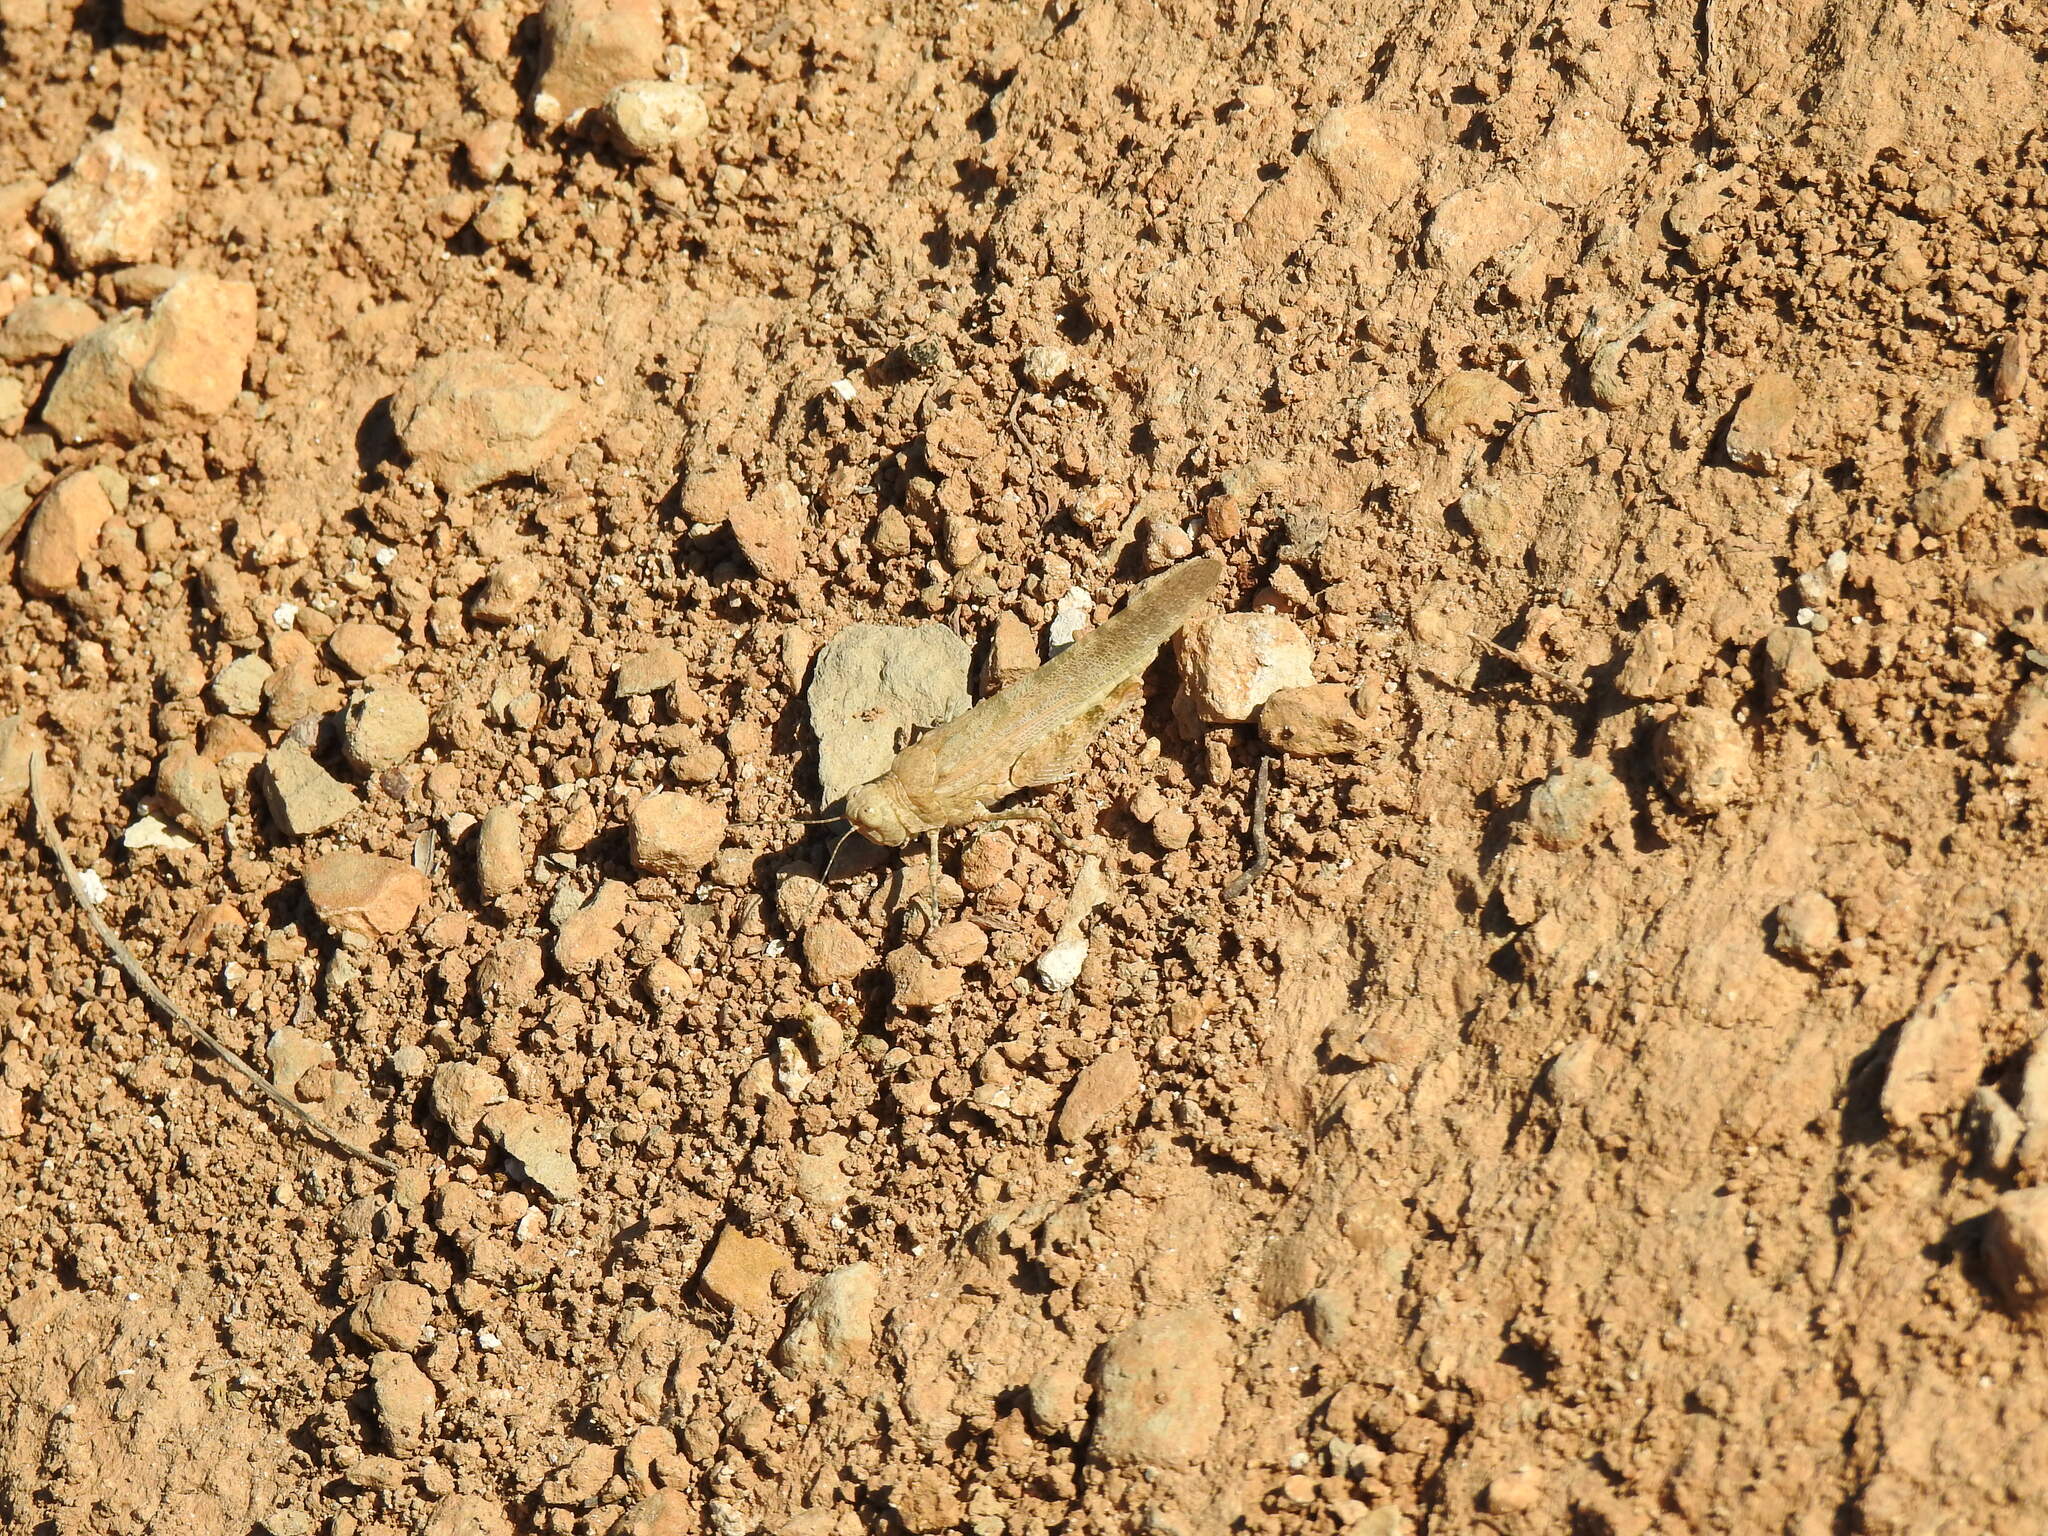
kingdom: Animalia
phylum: Arthropoda
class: Insecta
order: Orthoptera
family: Acrididae
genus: Sphingonotus
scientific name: Sphingonotus rubescens
